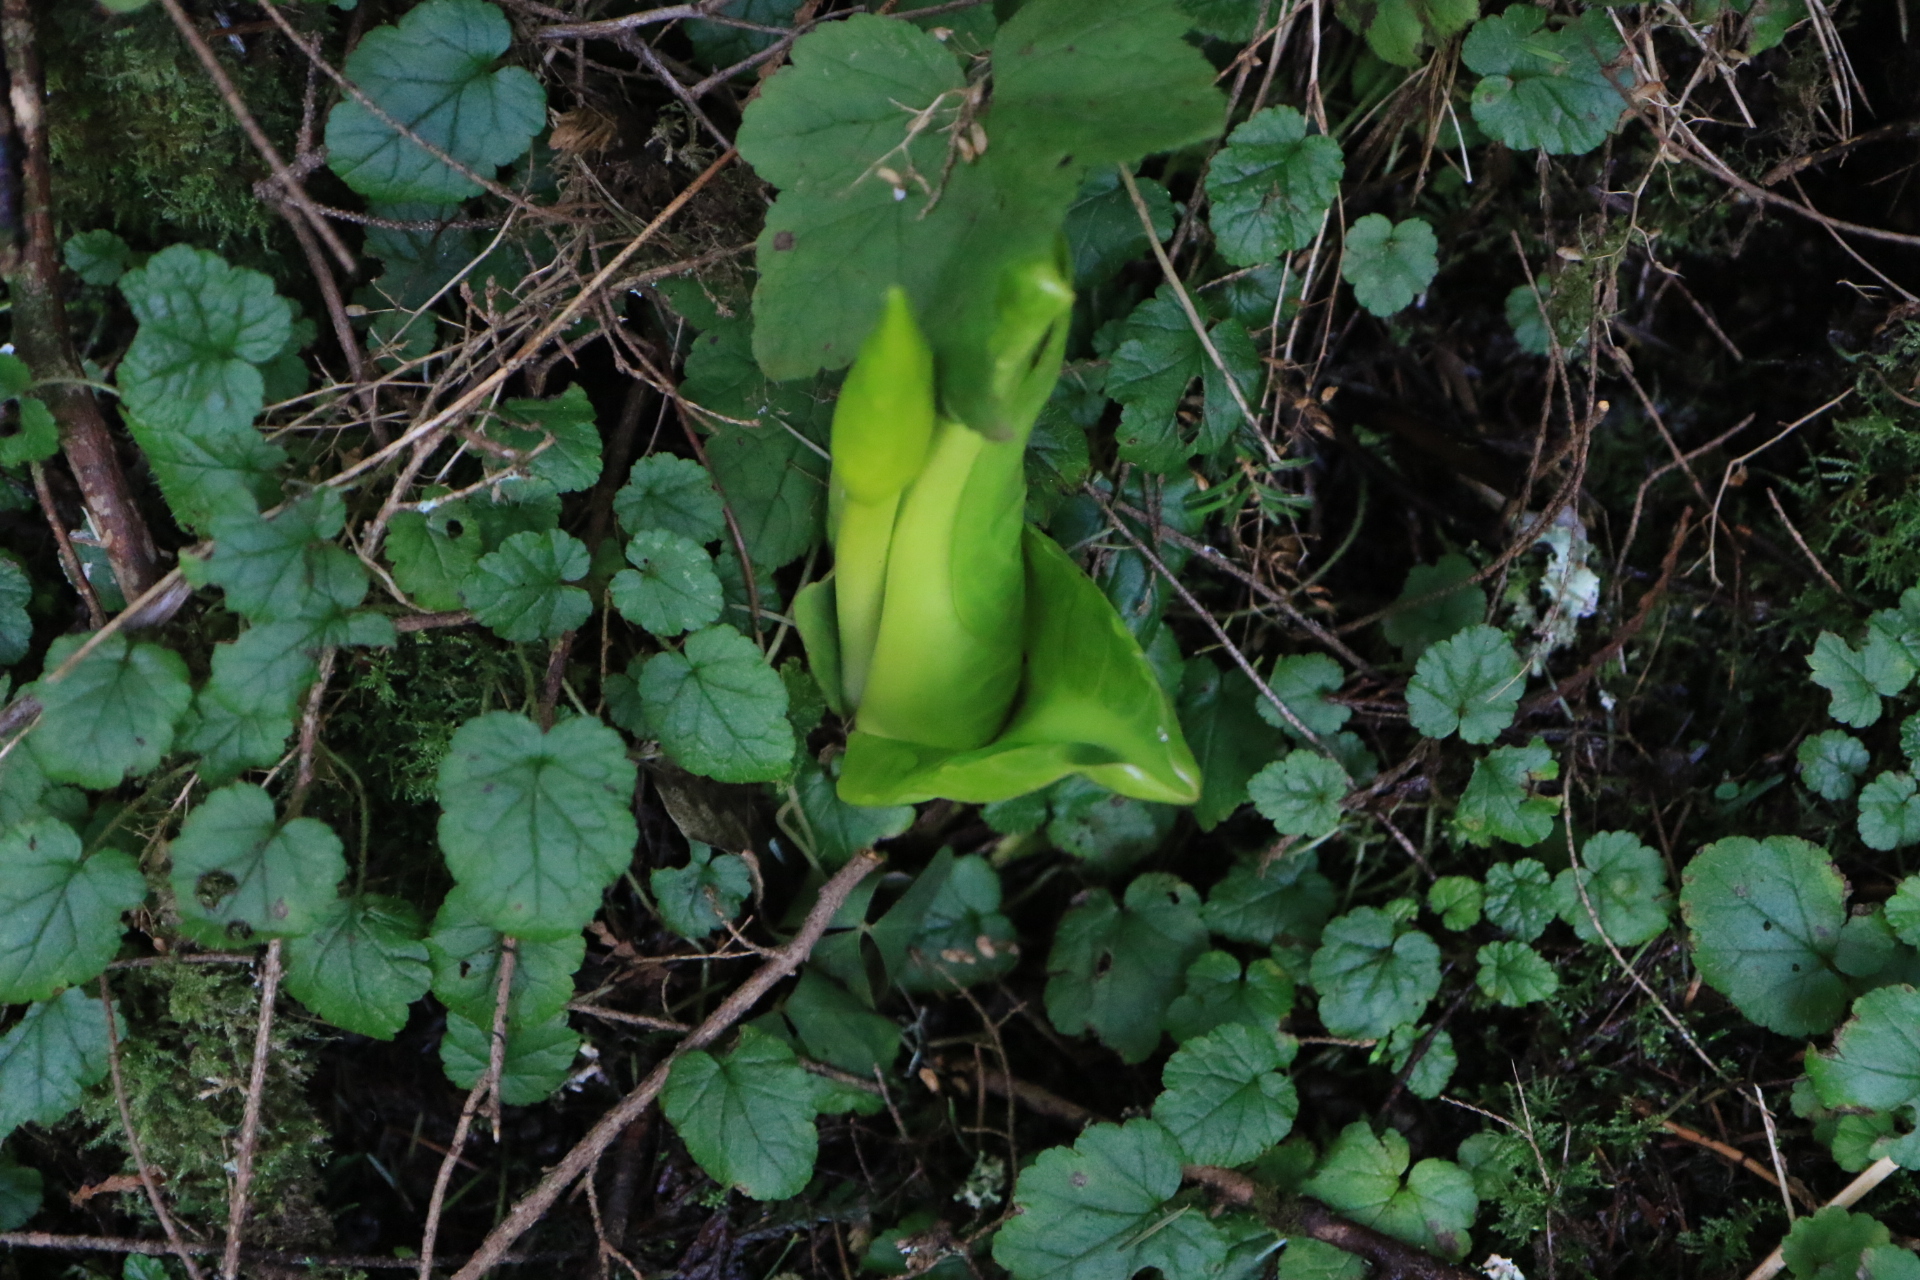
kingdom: Plantae
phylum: Tracheophyta
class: Liliopsida
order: Alismatales
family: Araceae
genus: Lysichiton
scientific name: Lysichiton americanus
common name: American skunk cabbage
